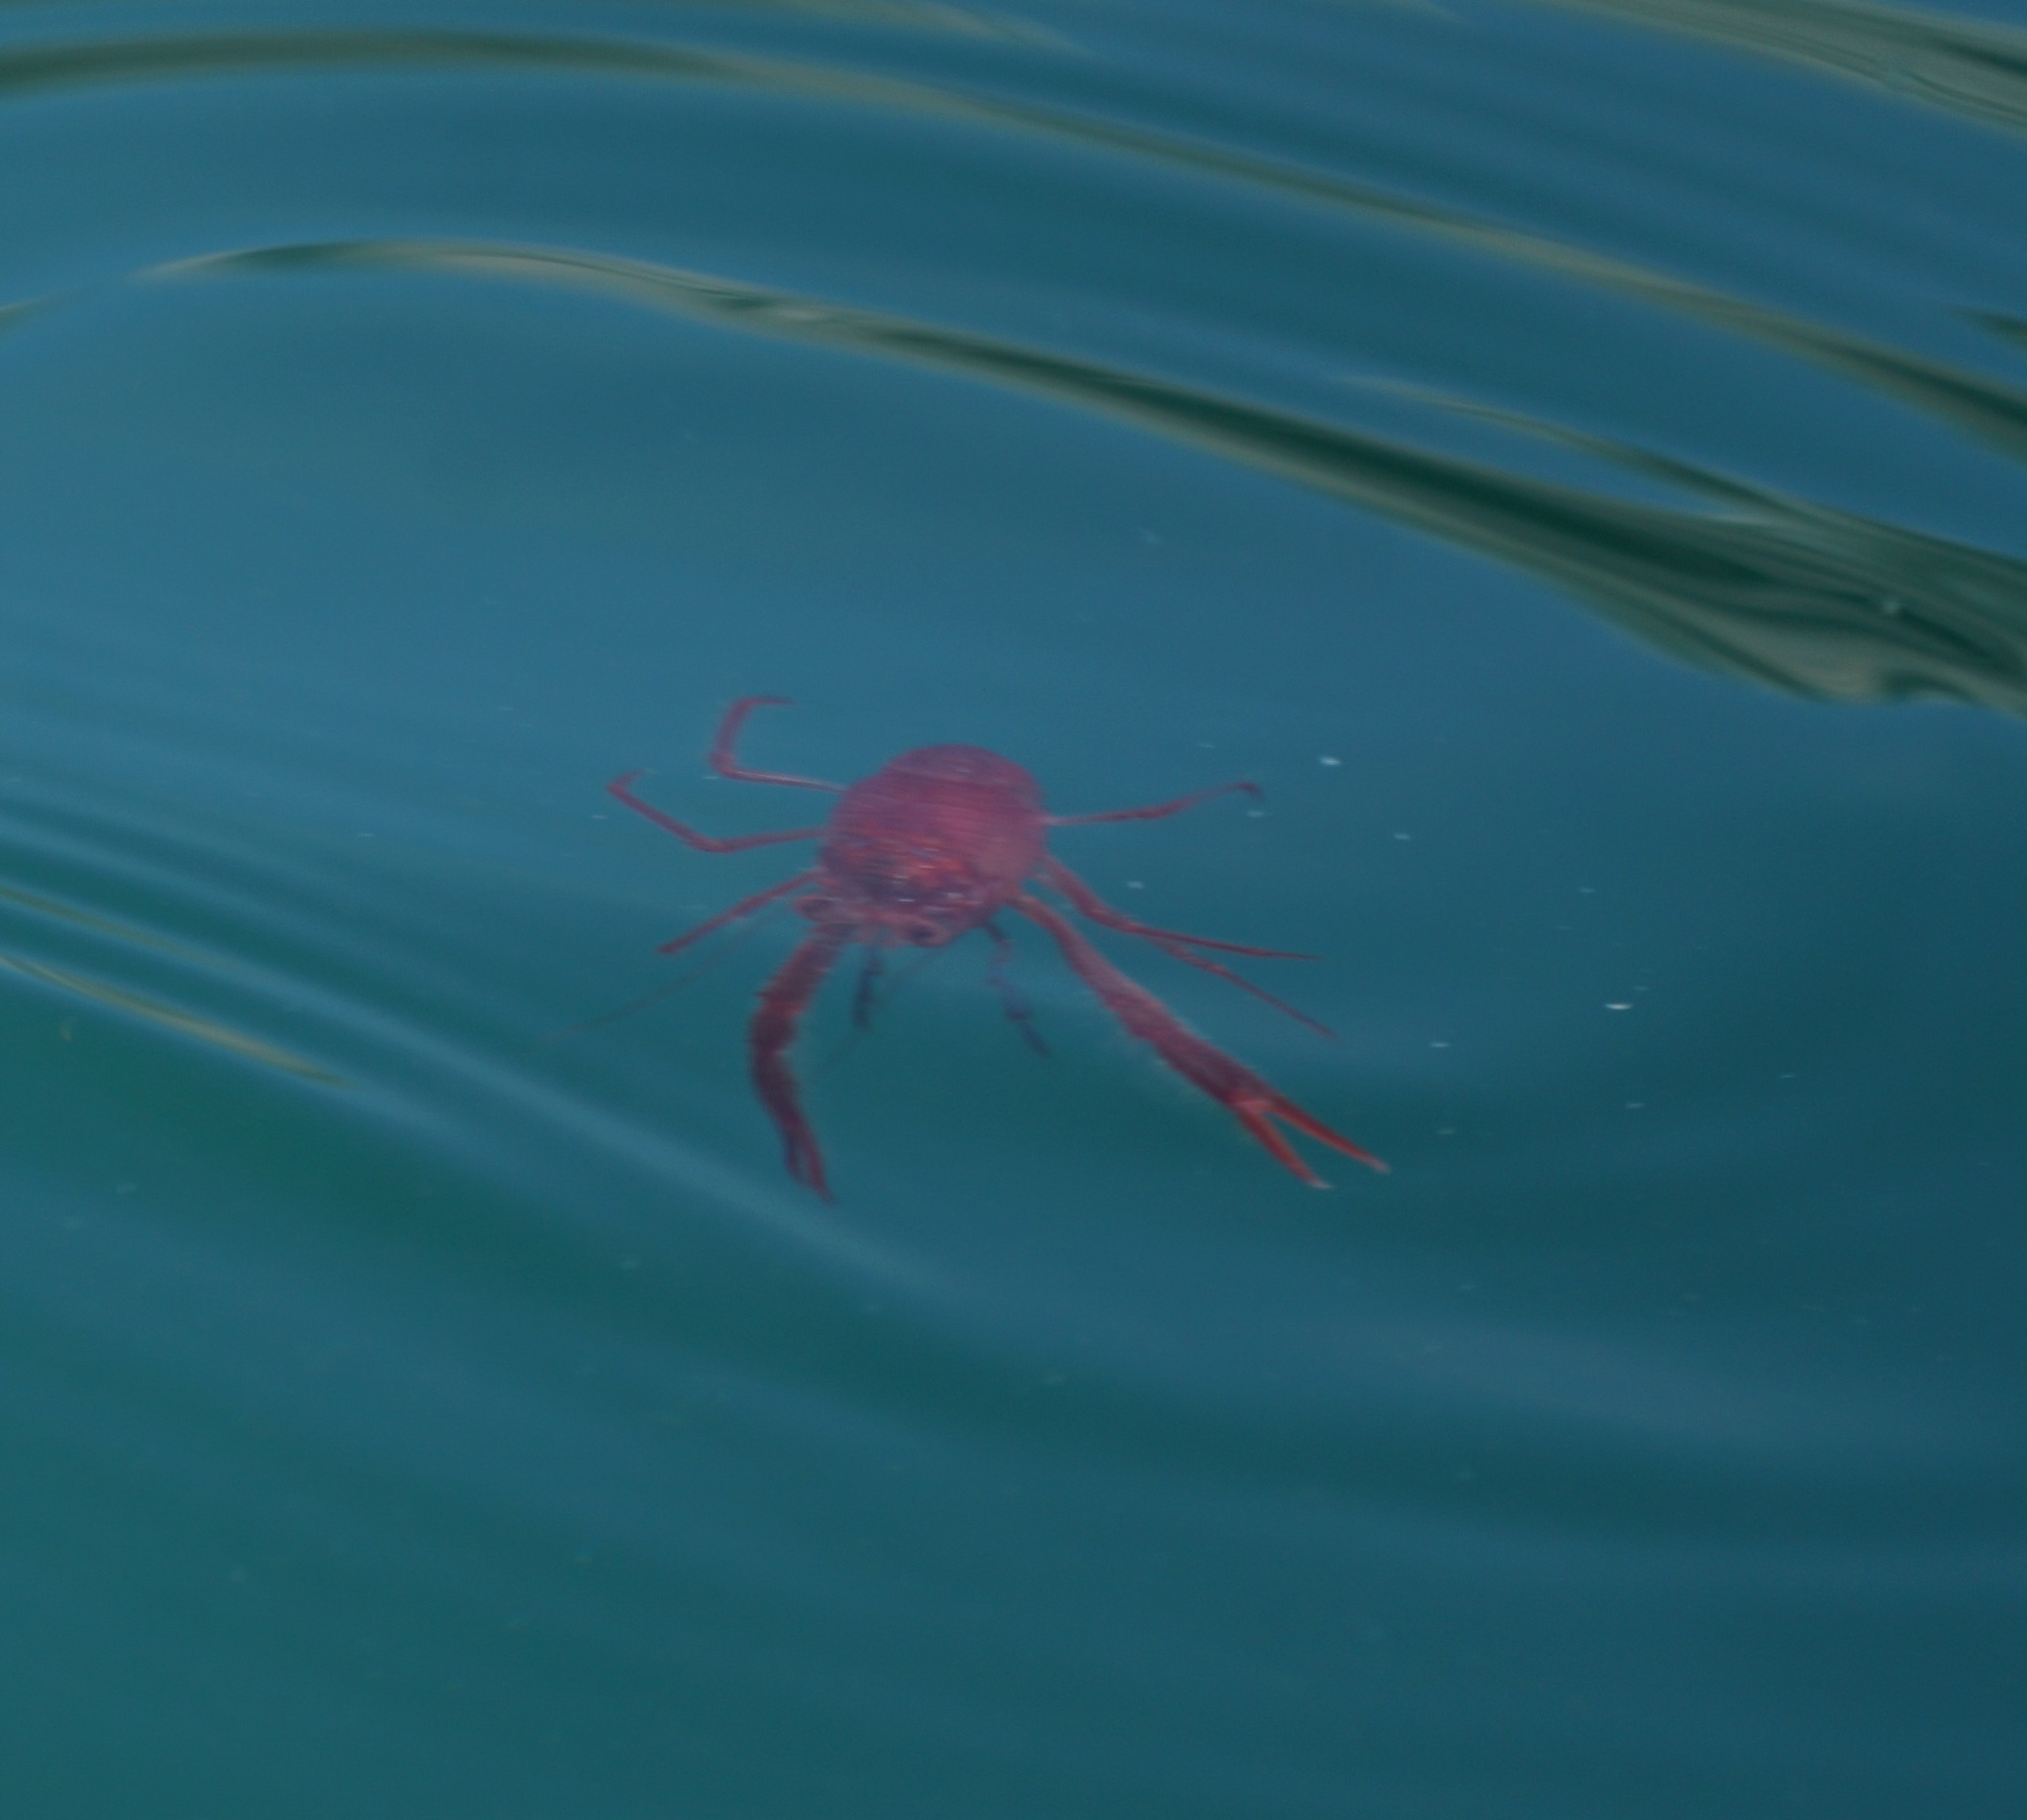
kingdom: Animalia
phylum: Arthropoda
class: Malacostraca
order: Decapoda
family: Munididae
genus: Grimothea
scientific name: Grimothea monodon
